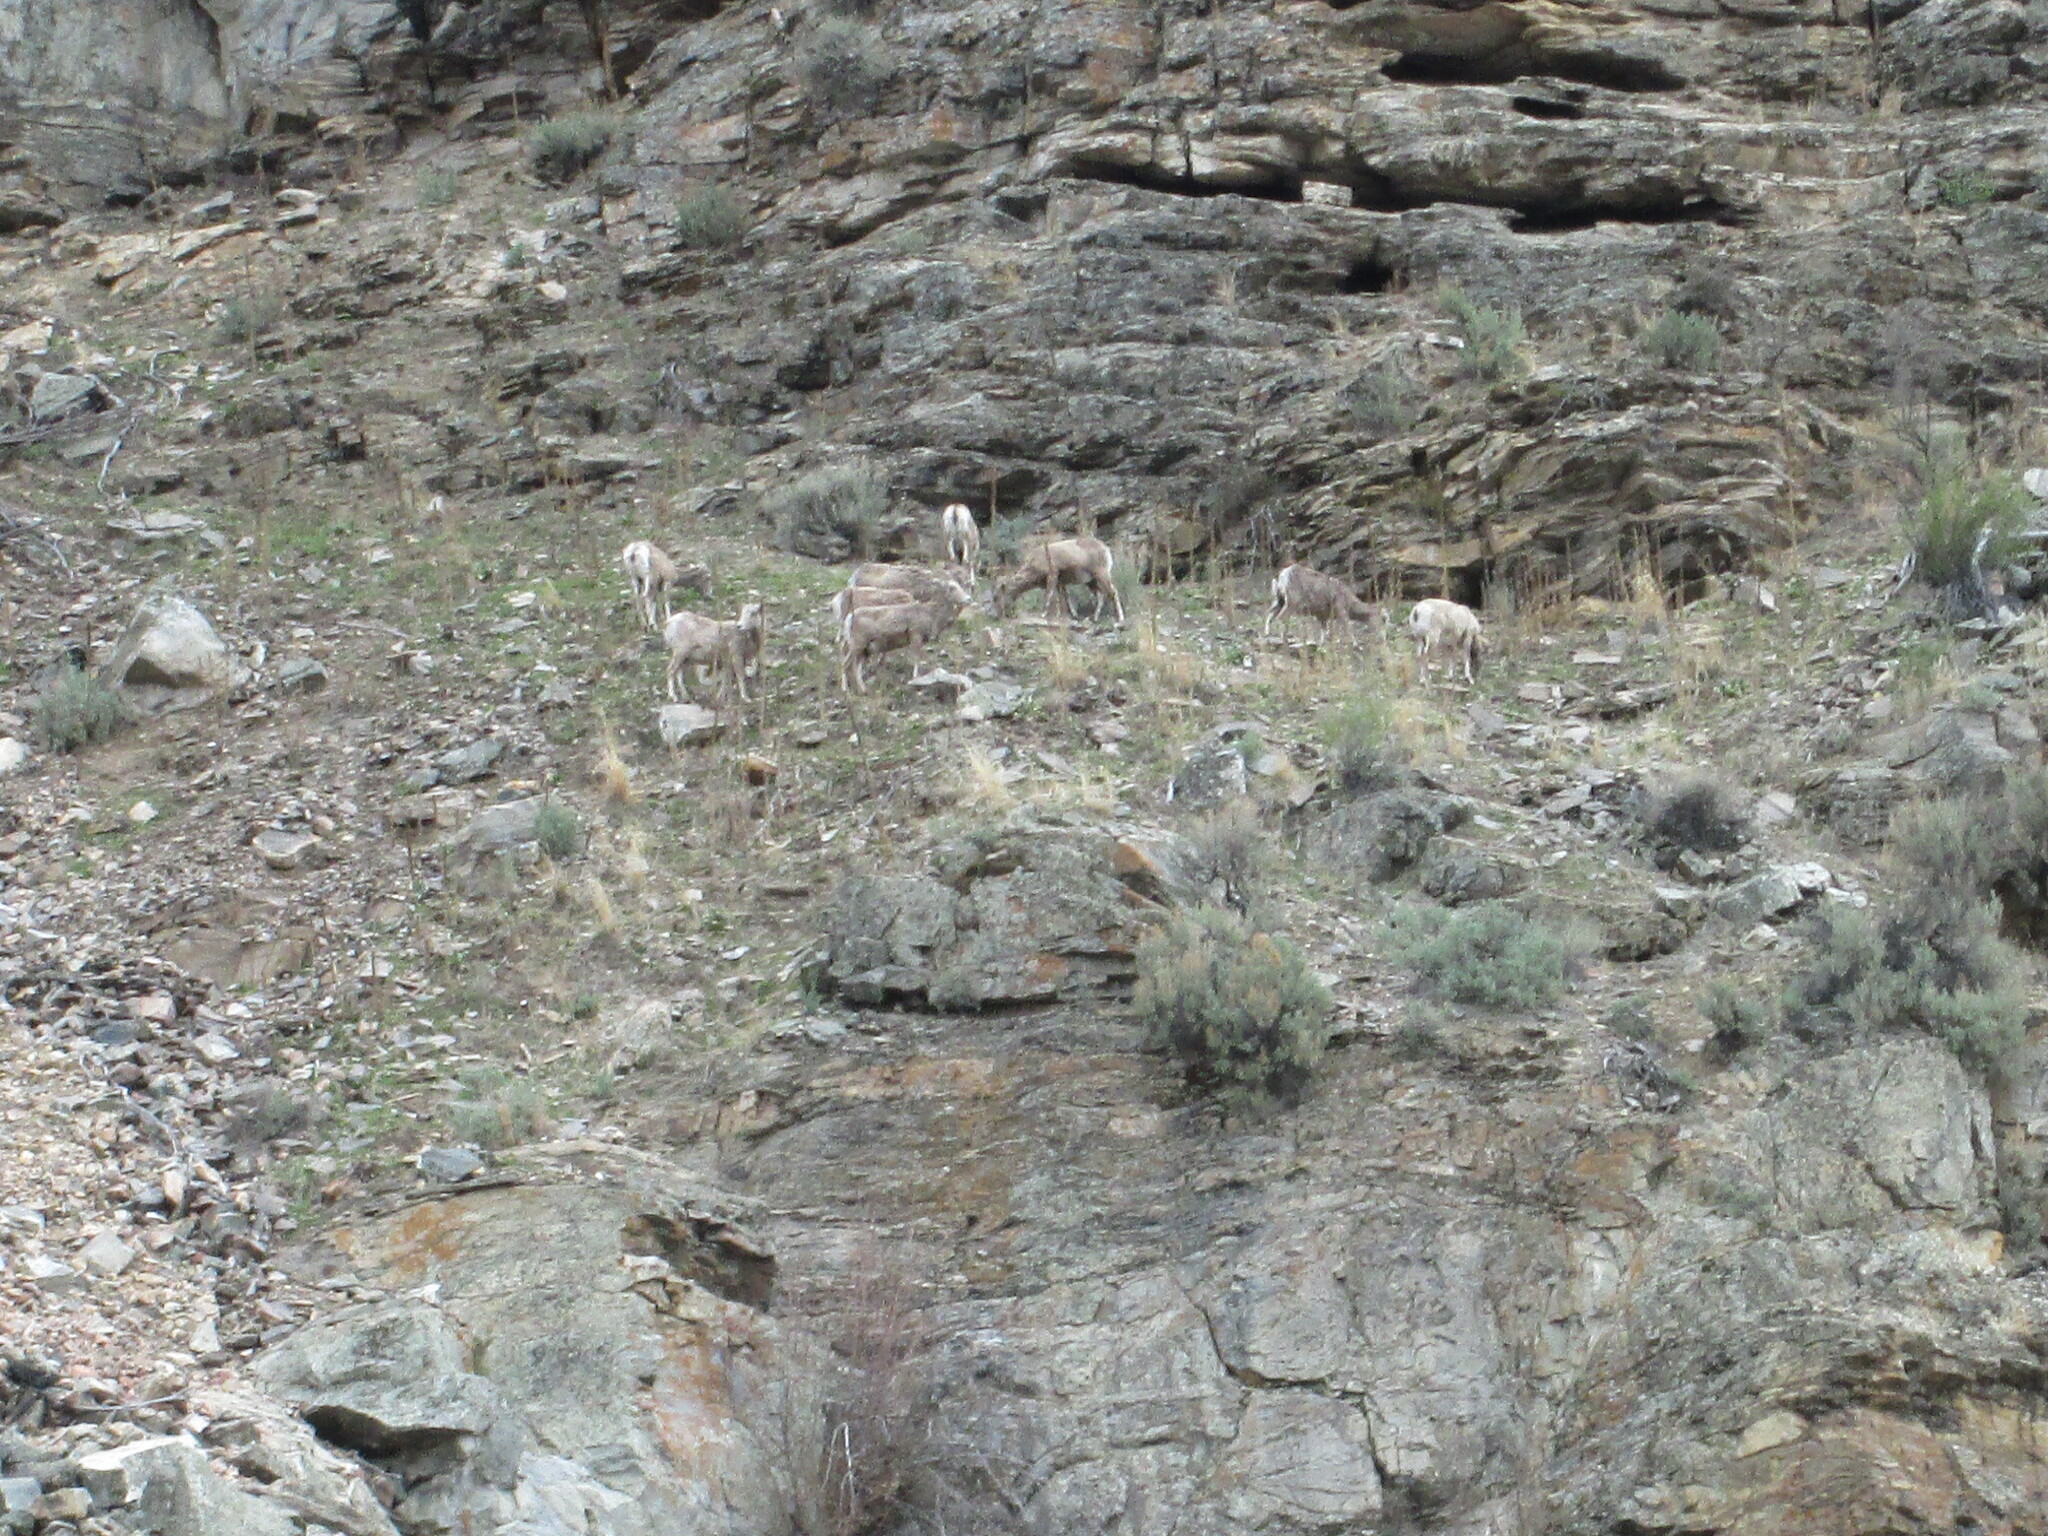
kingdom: Animalia
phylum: Chordata
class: Mammalia
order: Artiodactyla
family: Bovidae
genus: Ovis
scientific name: Ovis canadensis
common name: Bighorn sheep
